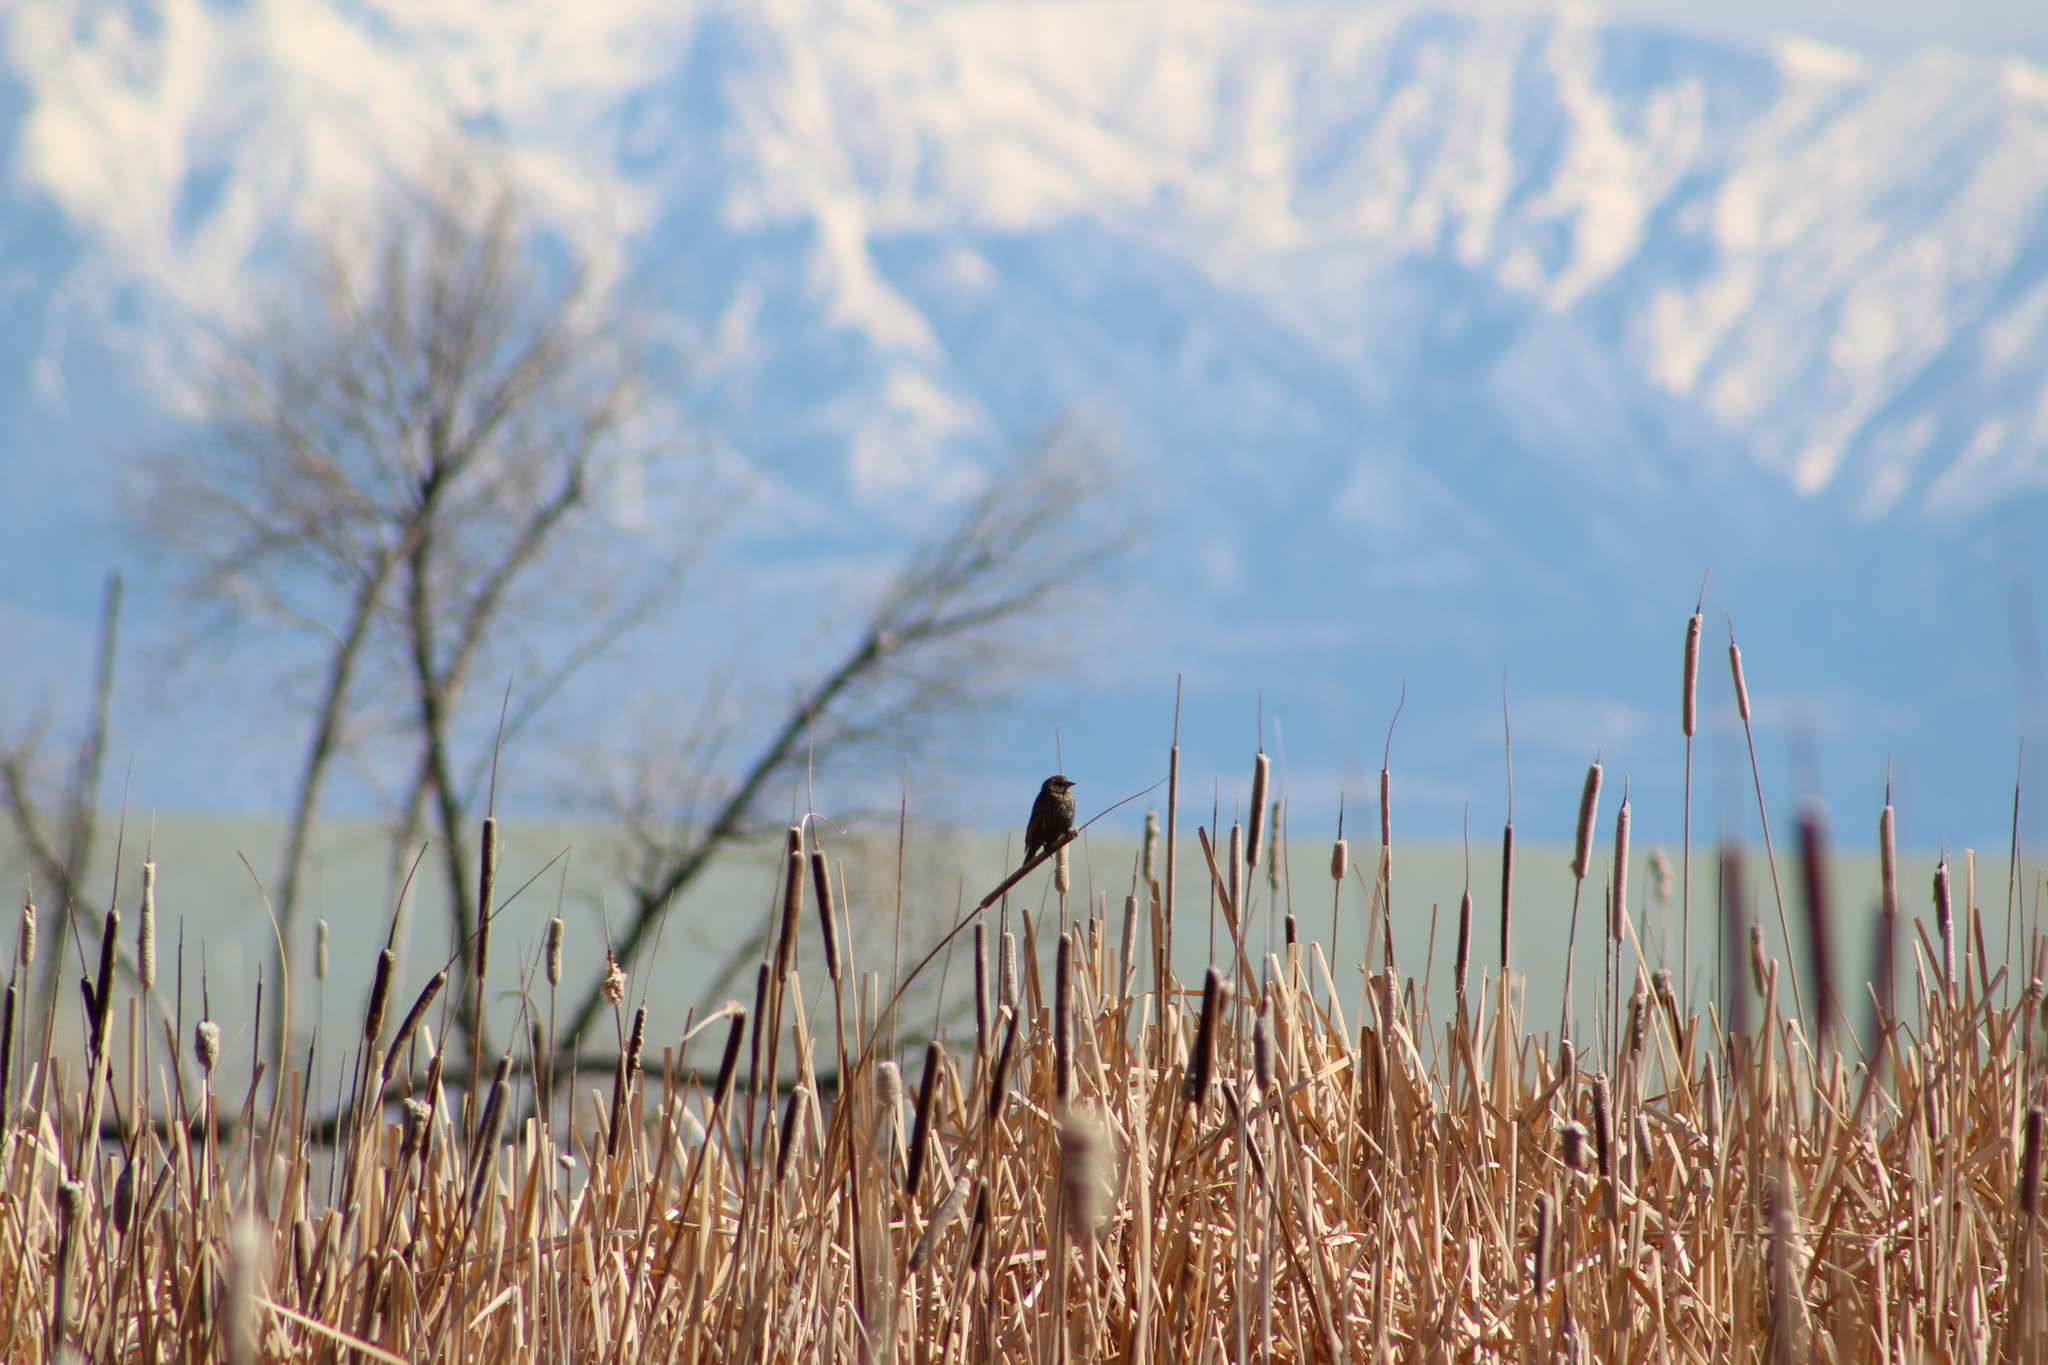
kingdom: Animalia
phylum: Chordata
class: Aves
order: Passeriformes
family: Icteridae
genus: Agelaius
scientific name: Agelaius phoeniceus
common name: Red-winged blackbird
